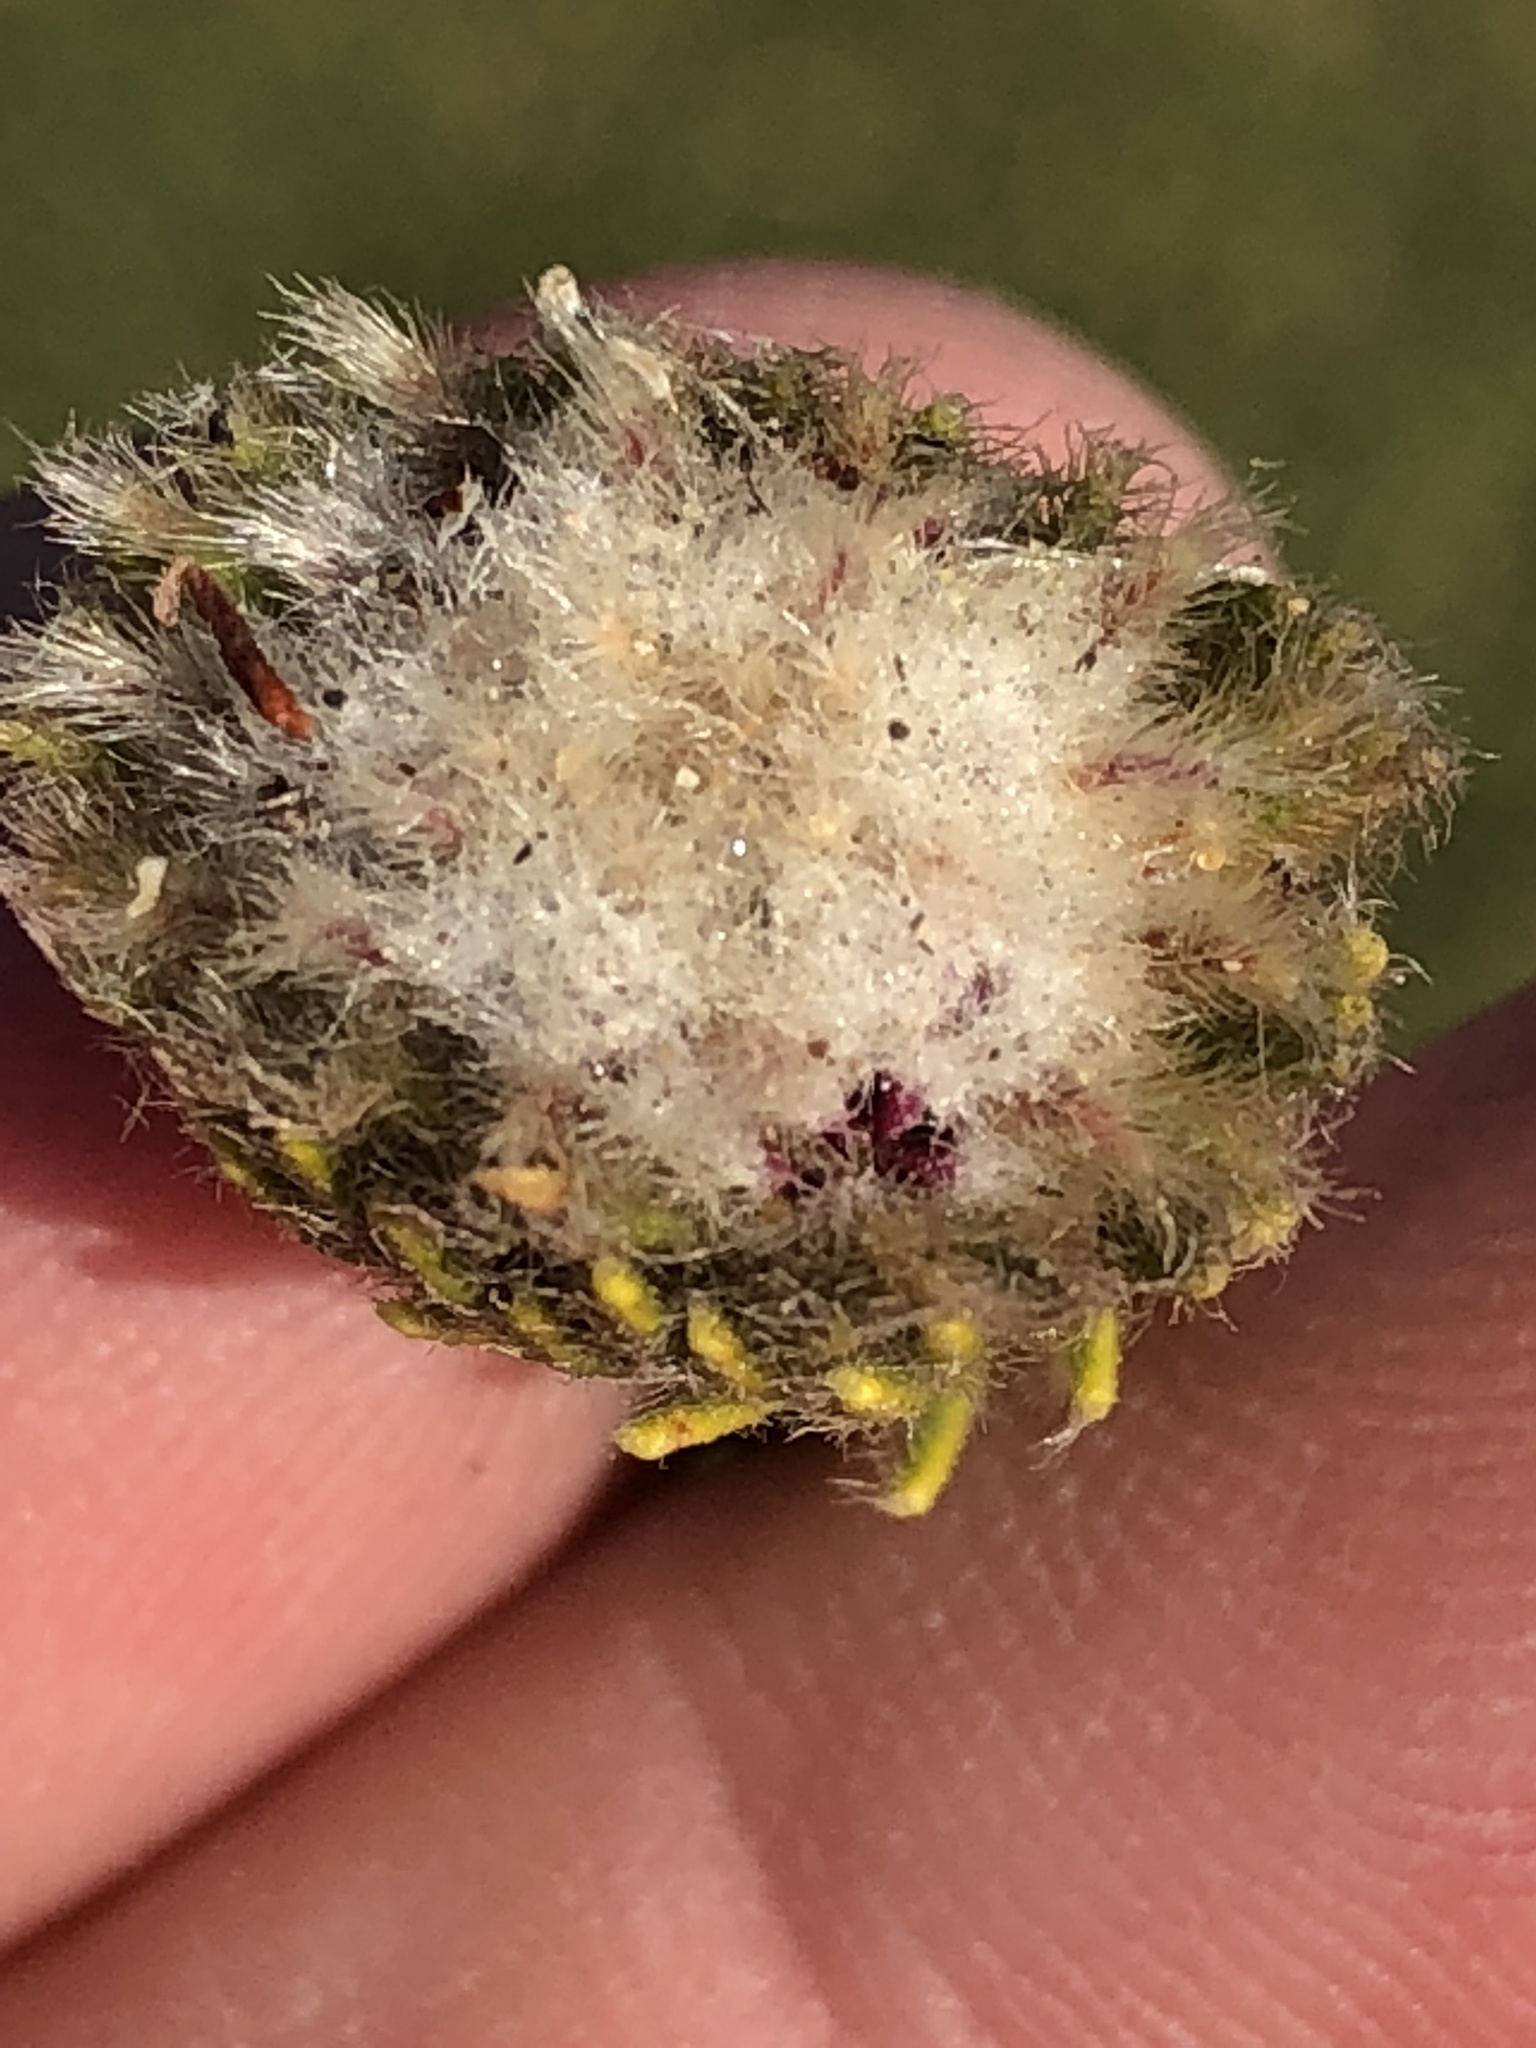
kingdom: Plantae
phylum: Tracheophyta
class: Magnoliopsida
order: Rosales
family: Rhamnaceae
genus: Phylica
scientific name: Phylica nigromontana
